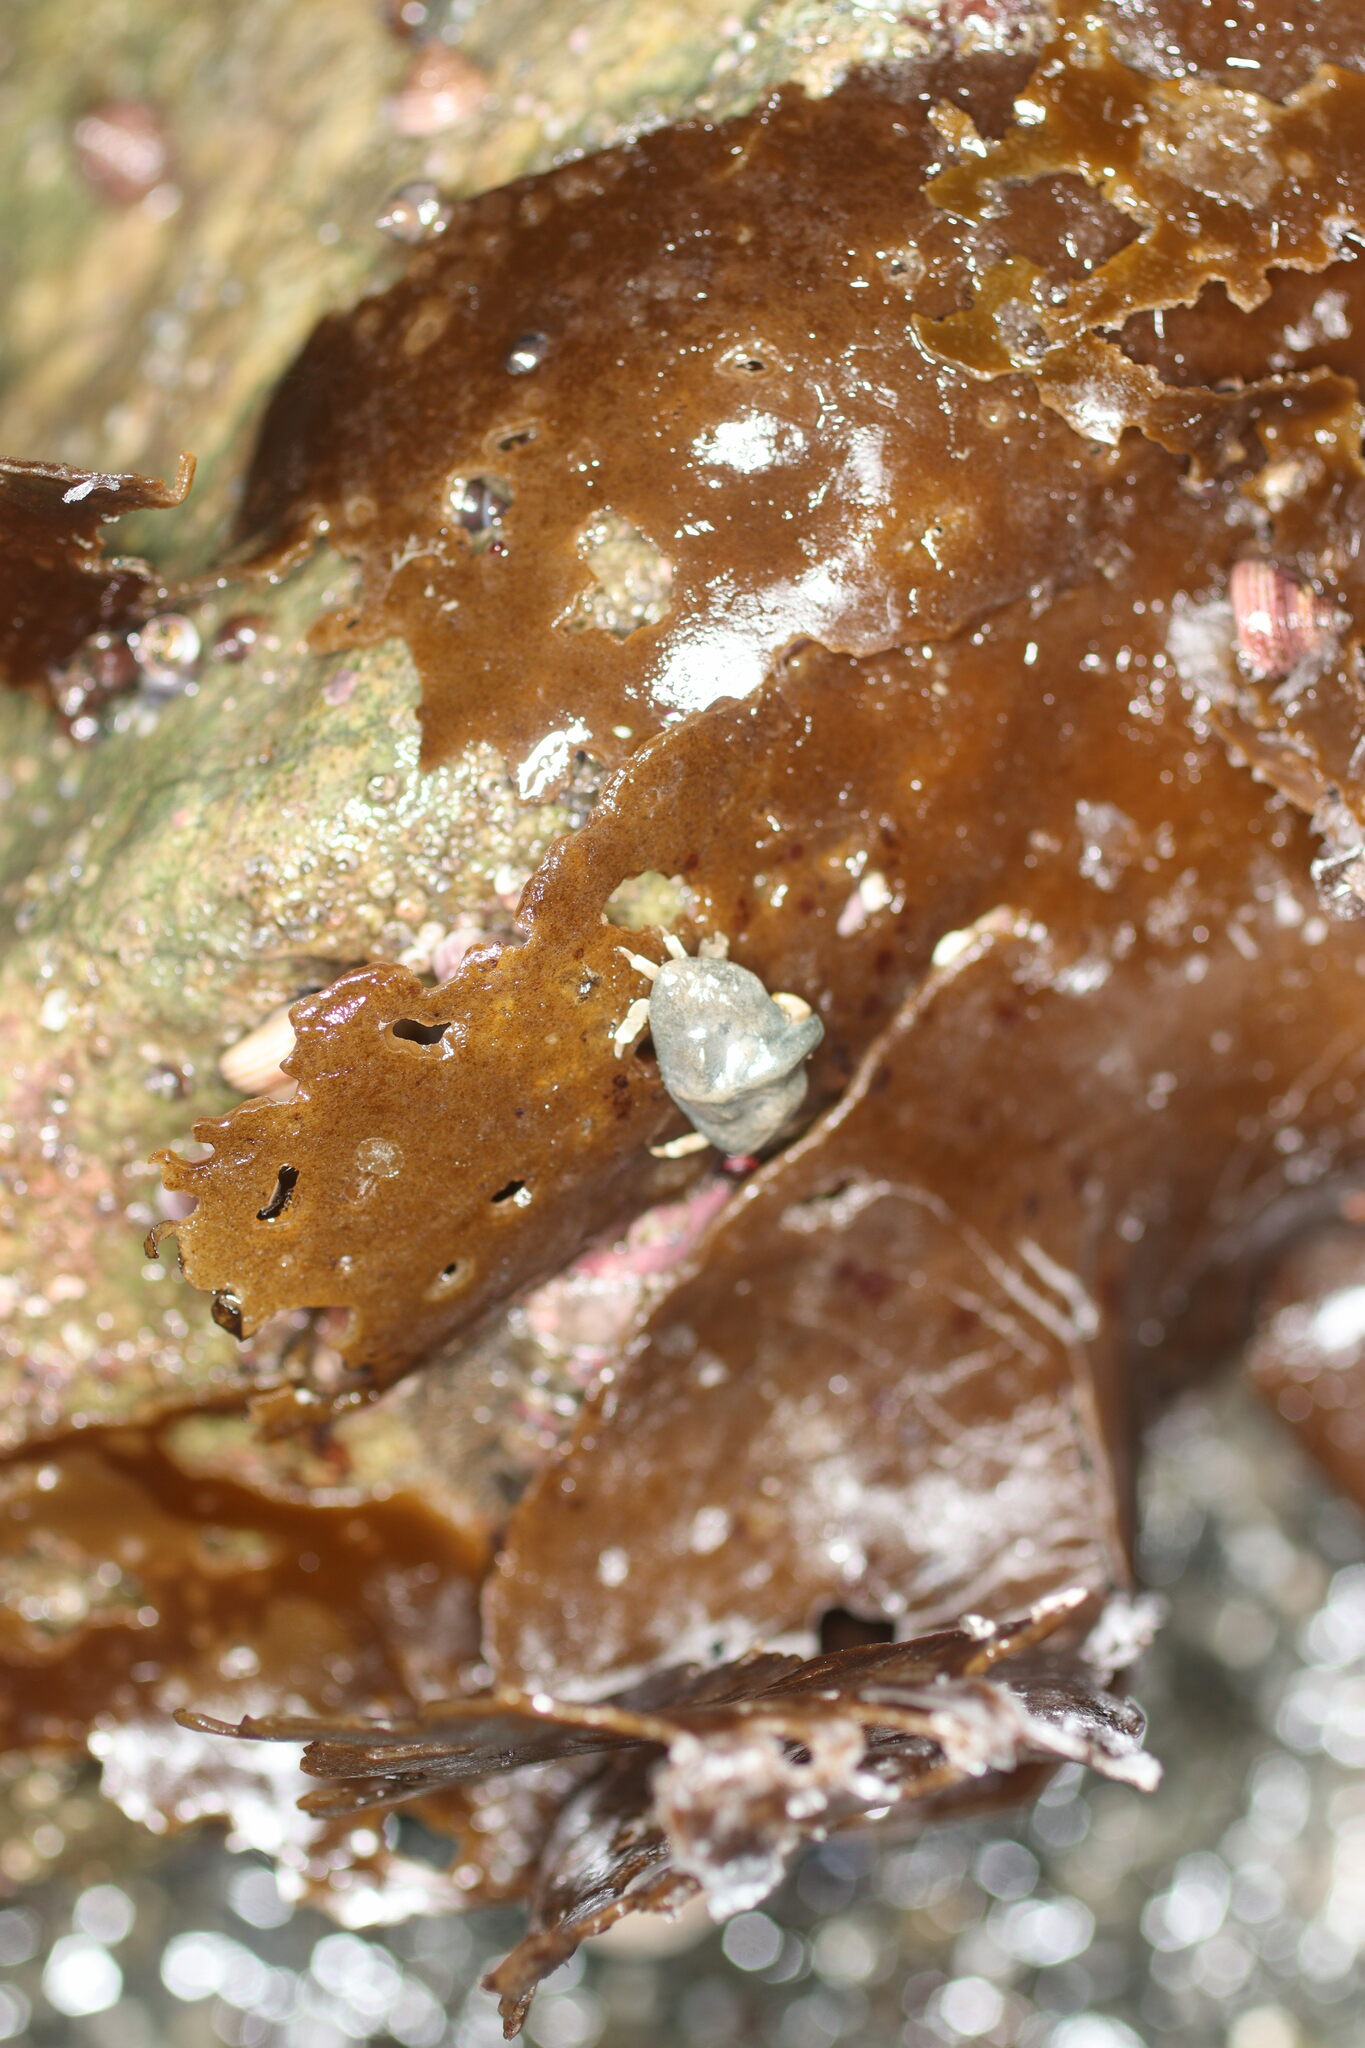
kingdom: Animalia
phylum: Arthropoda
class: Malacostraca
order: Decapoda
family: Lithodidae
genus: Cryptolithodes
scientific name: Cryptolithodes typicus
